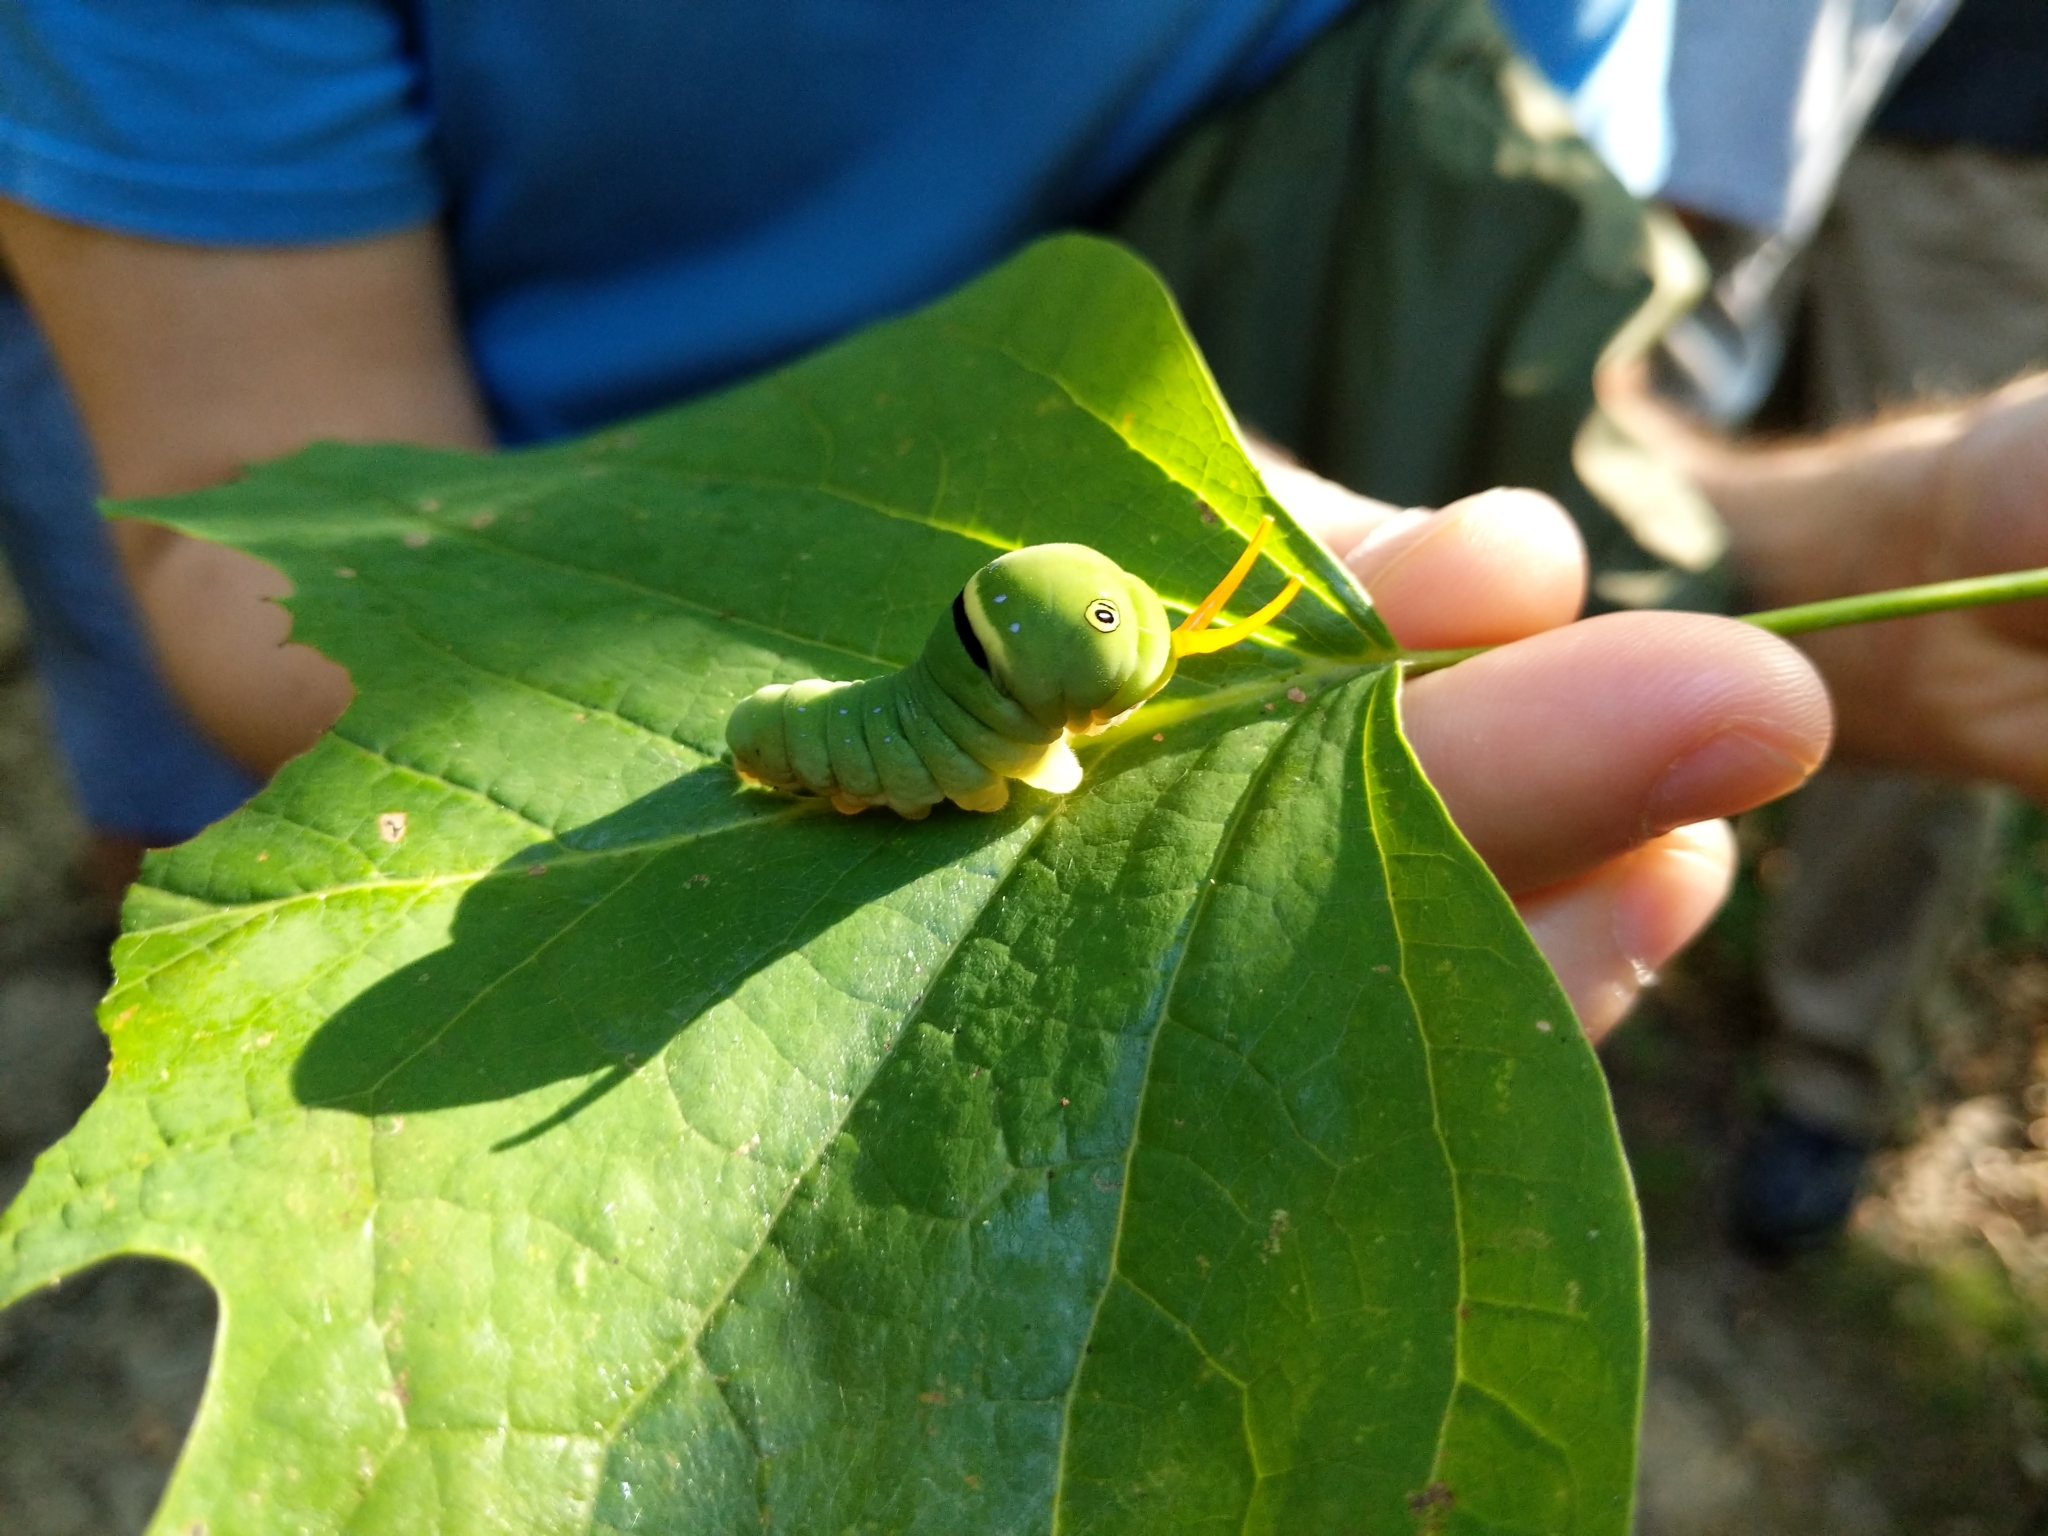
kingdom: Animalia
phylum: Arthropoda
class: Insecta
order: Lepidoptera
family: Papilionidae
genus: Papilio
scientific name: Papilio glaucus
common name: Tiger swallowtail
